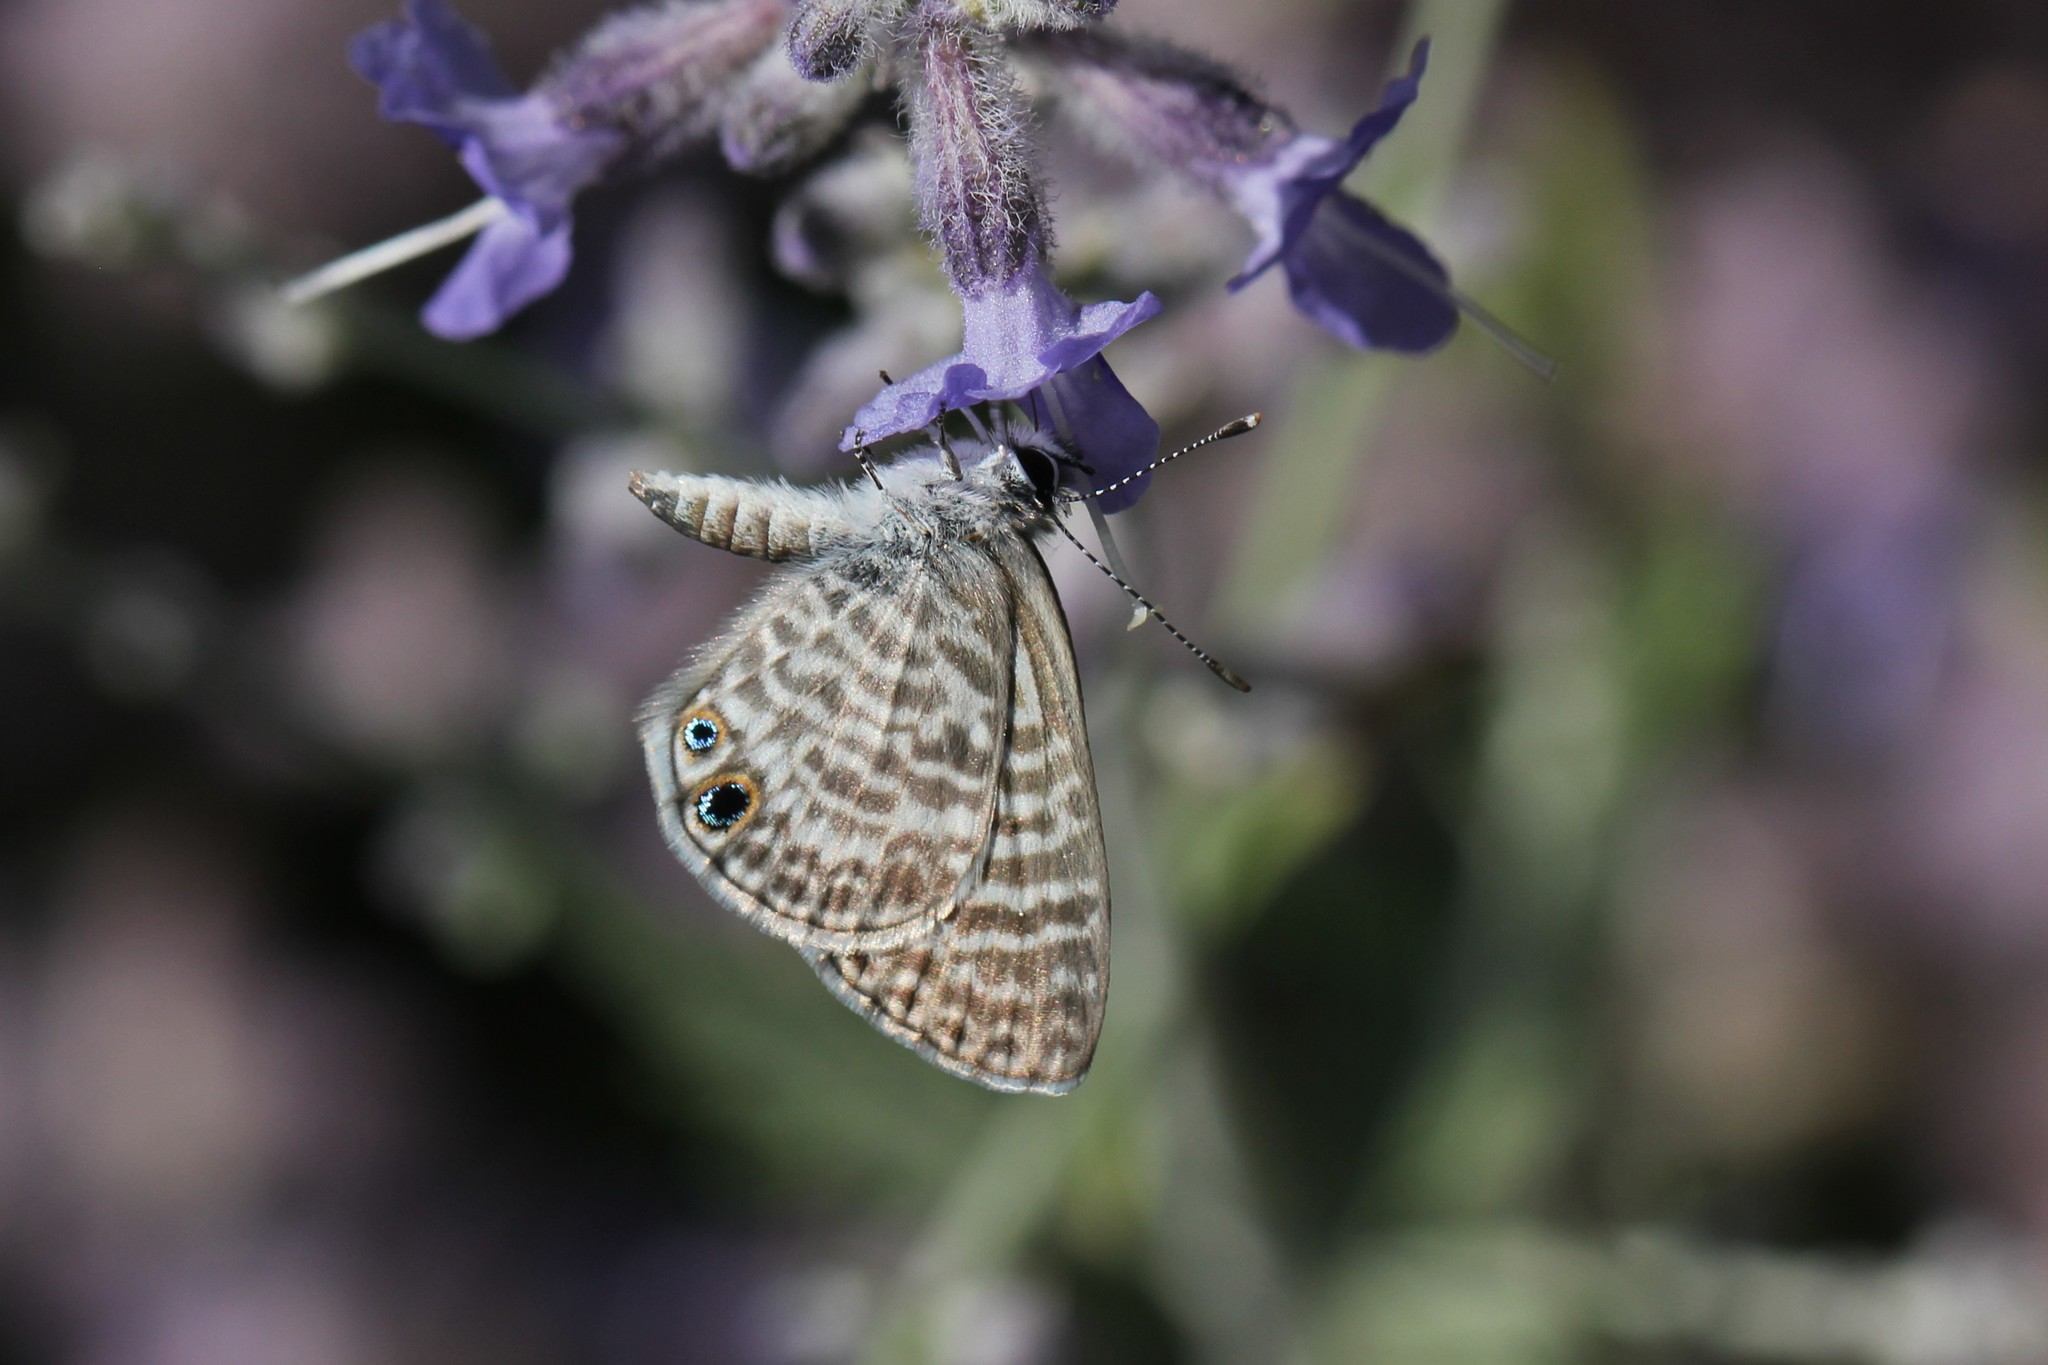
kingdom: Animalia
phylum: Arthropoda
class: Insecta
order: Lepidoptera
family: Lycaenidae
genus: Leptotes
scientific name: Leptotes marina
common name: Marine blue
